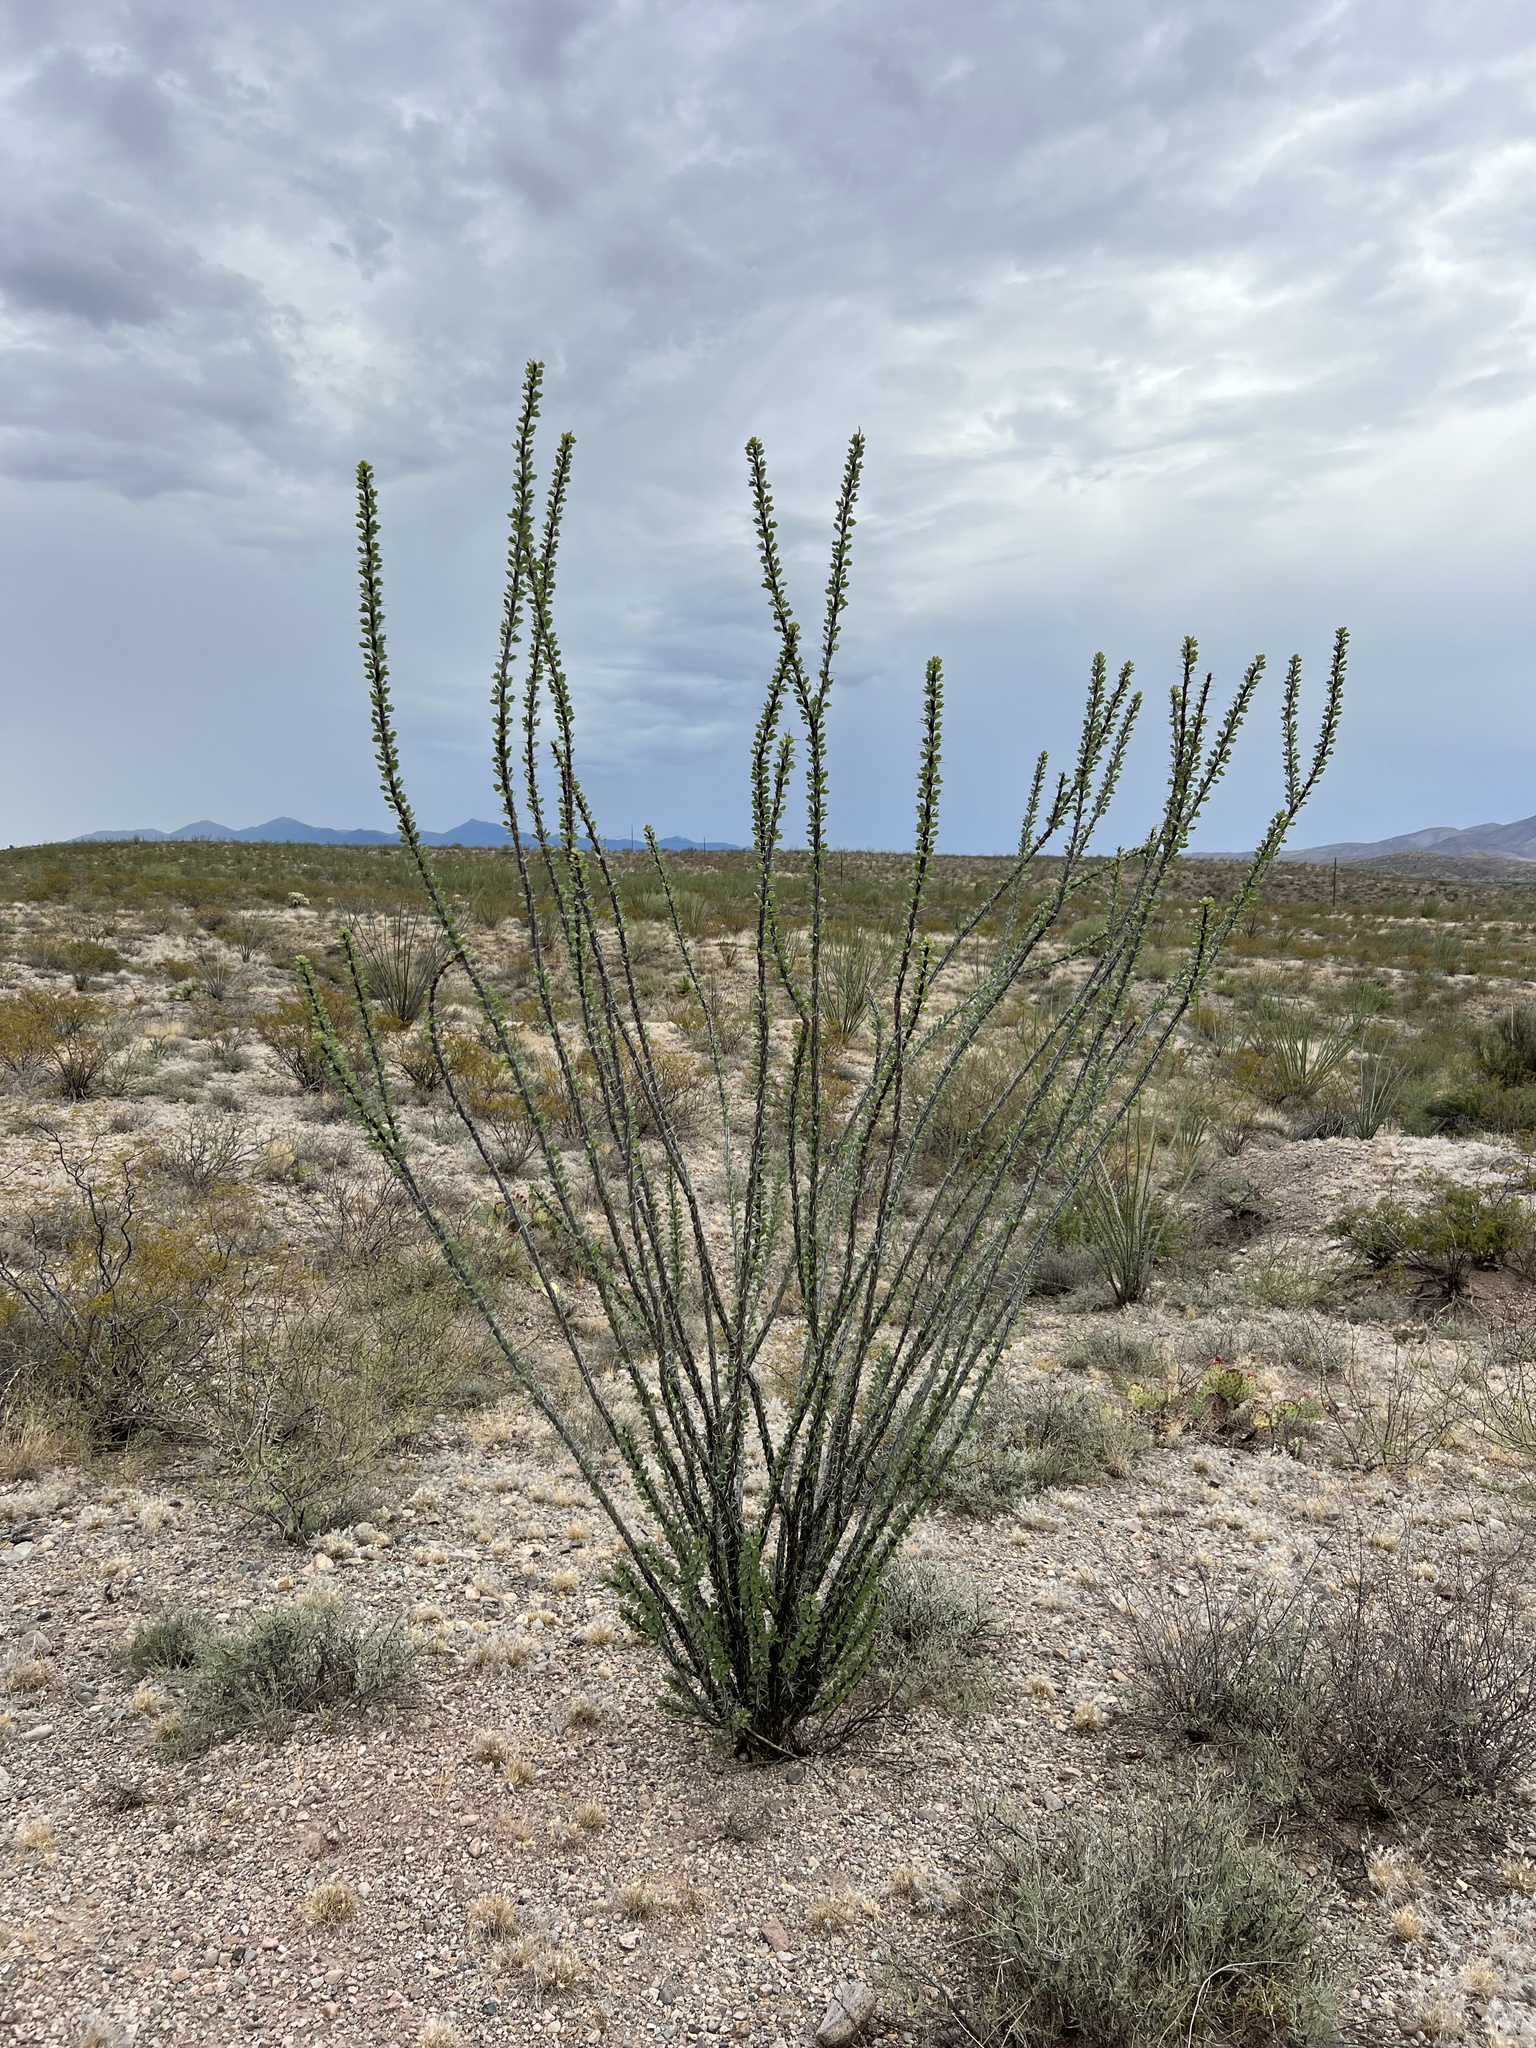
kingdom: Plantae
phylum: Tracheophyta
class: Magnoliopsida
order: Ericales
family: Fouquieriaceae
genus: Fouquieria
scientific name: Fouquieria splendens
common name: Vine-cactus
